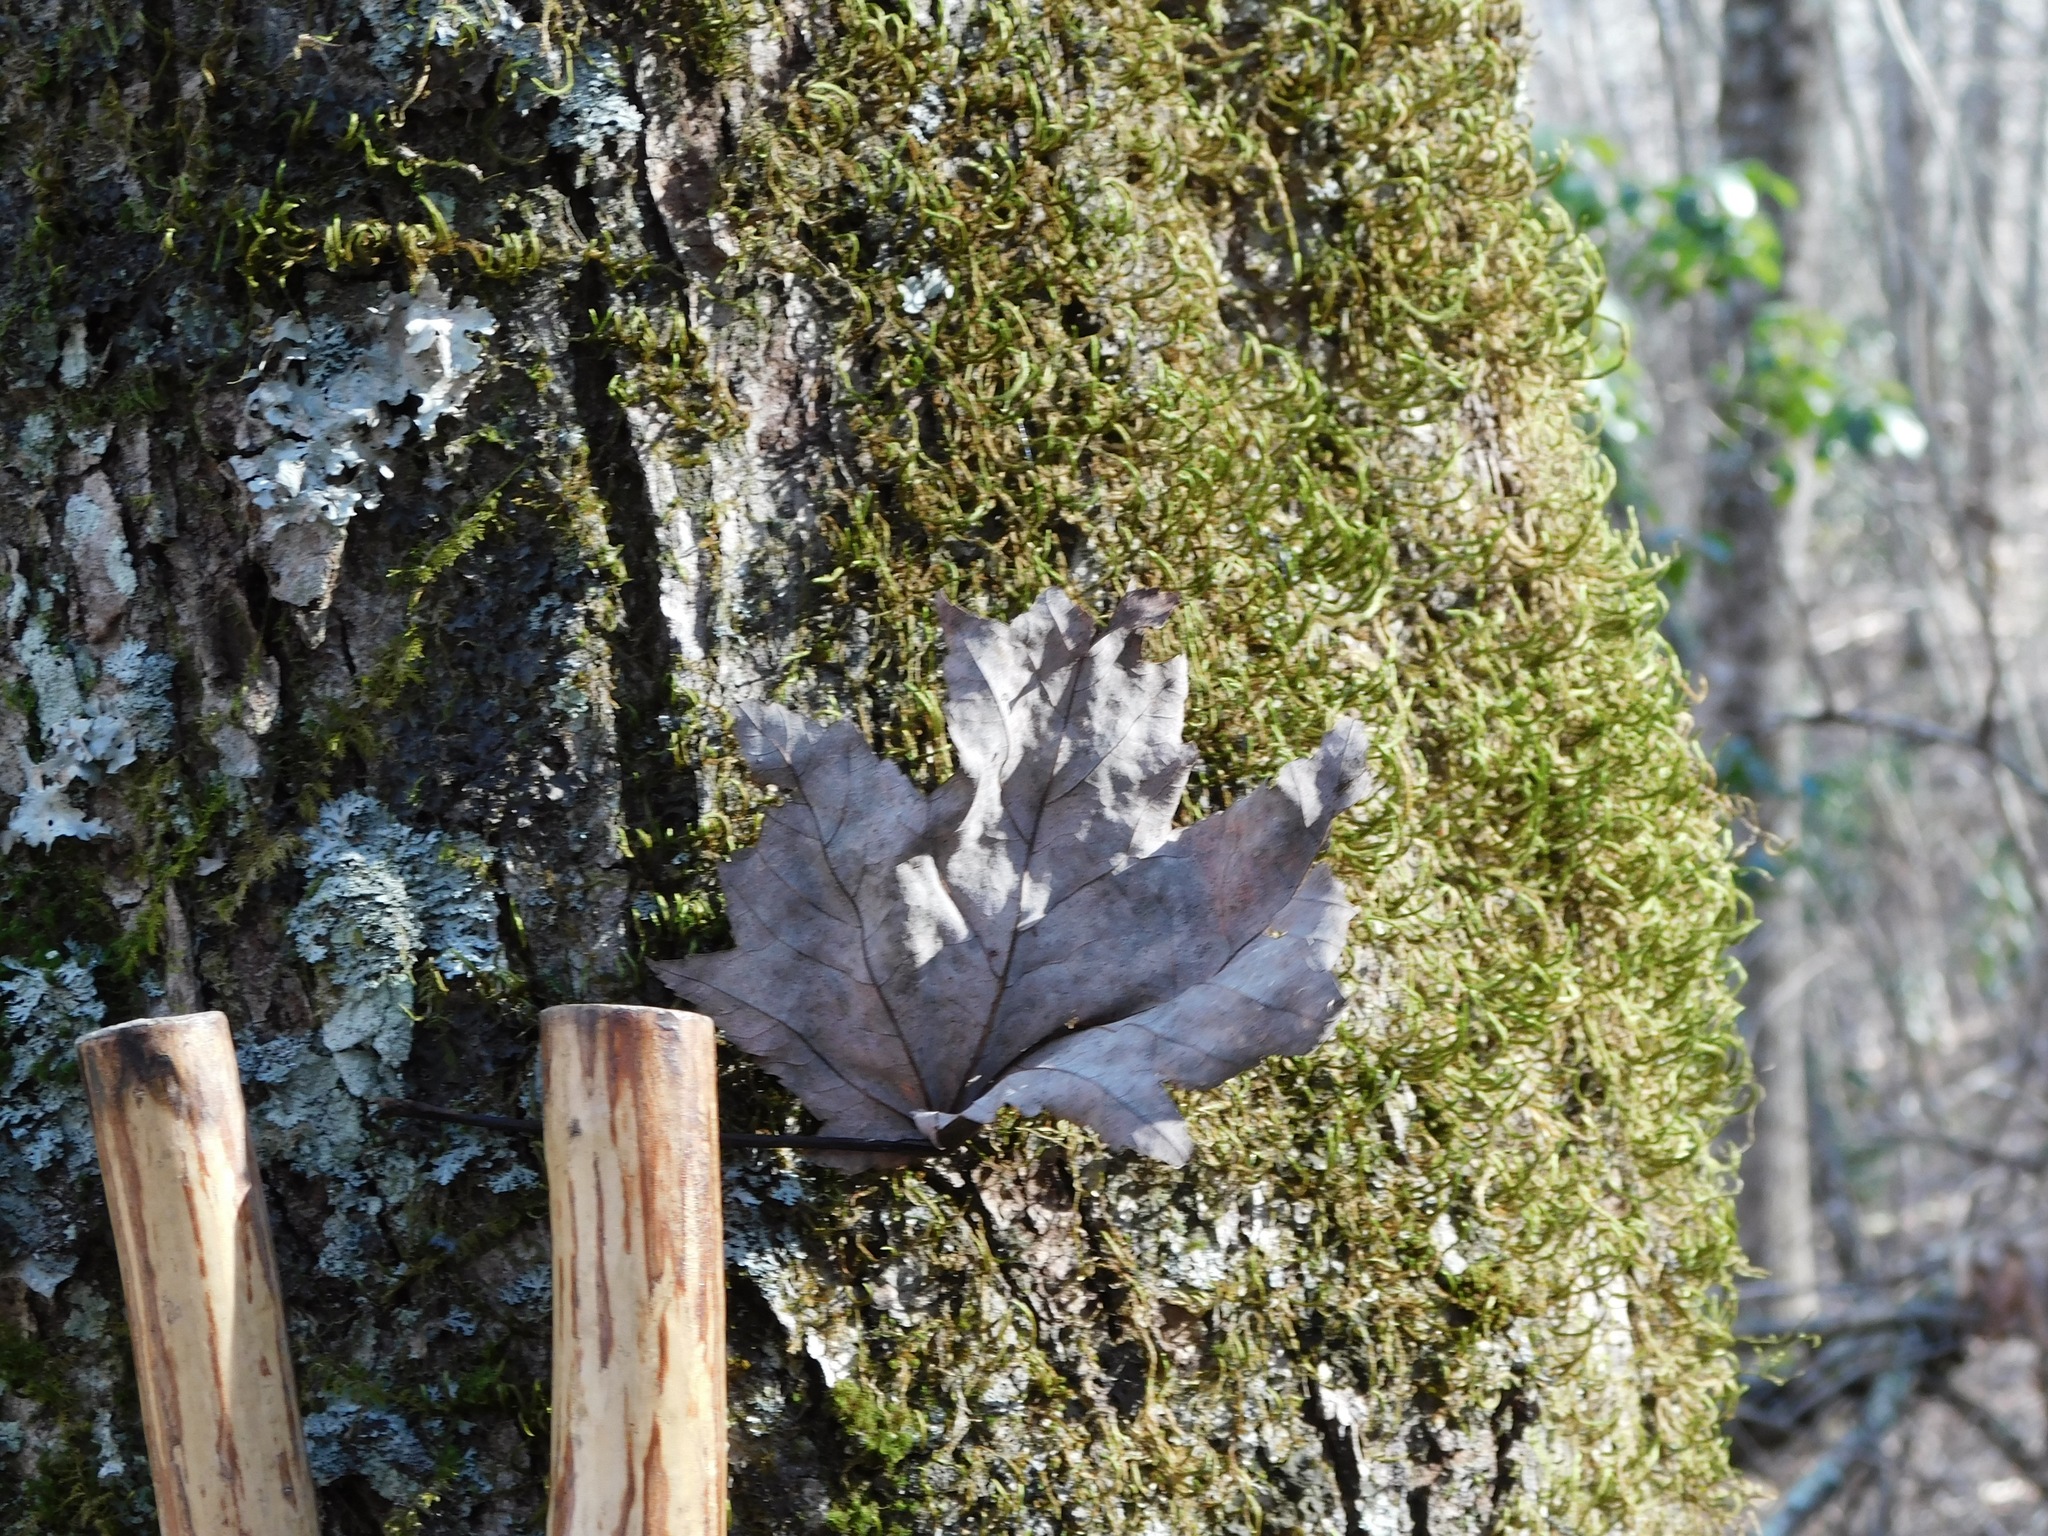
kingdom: Plantae
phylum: Tracheophyta
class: Magnoliopsida
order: Sapindales
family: Sapindaceae
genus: Acer
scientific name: Acer freemanii
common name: Freeman maple
